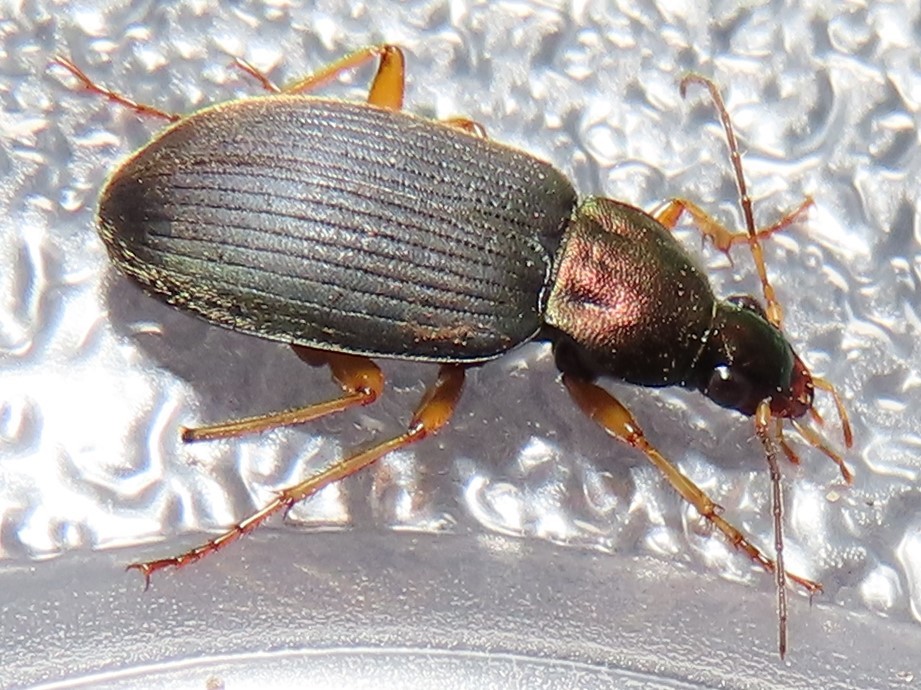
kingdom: Animalia
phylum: Arthropoda
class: Insecta
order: Coleoptera
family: Carabidae
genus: Chlaenius
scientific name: Chlaenius aestivus
